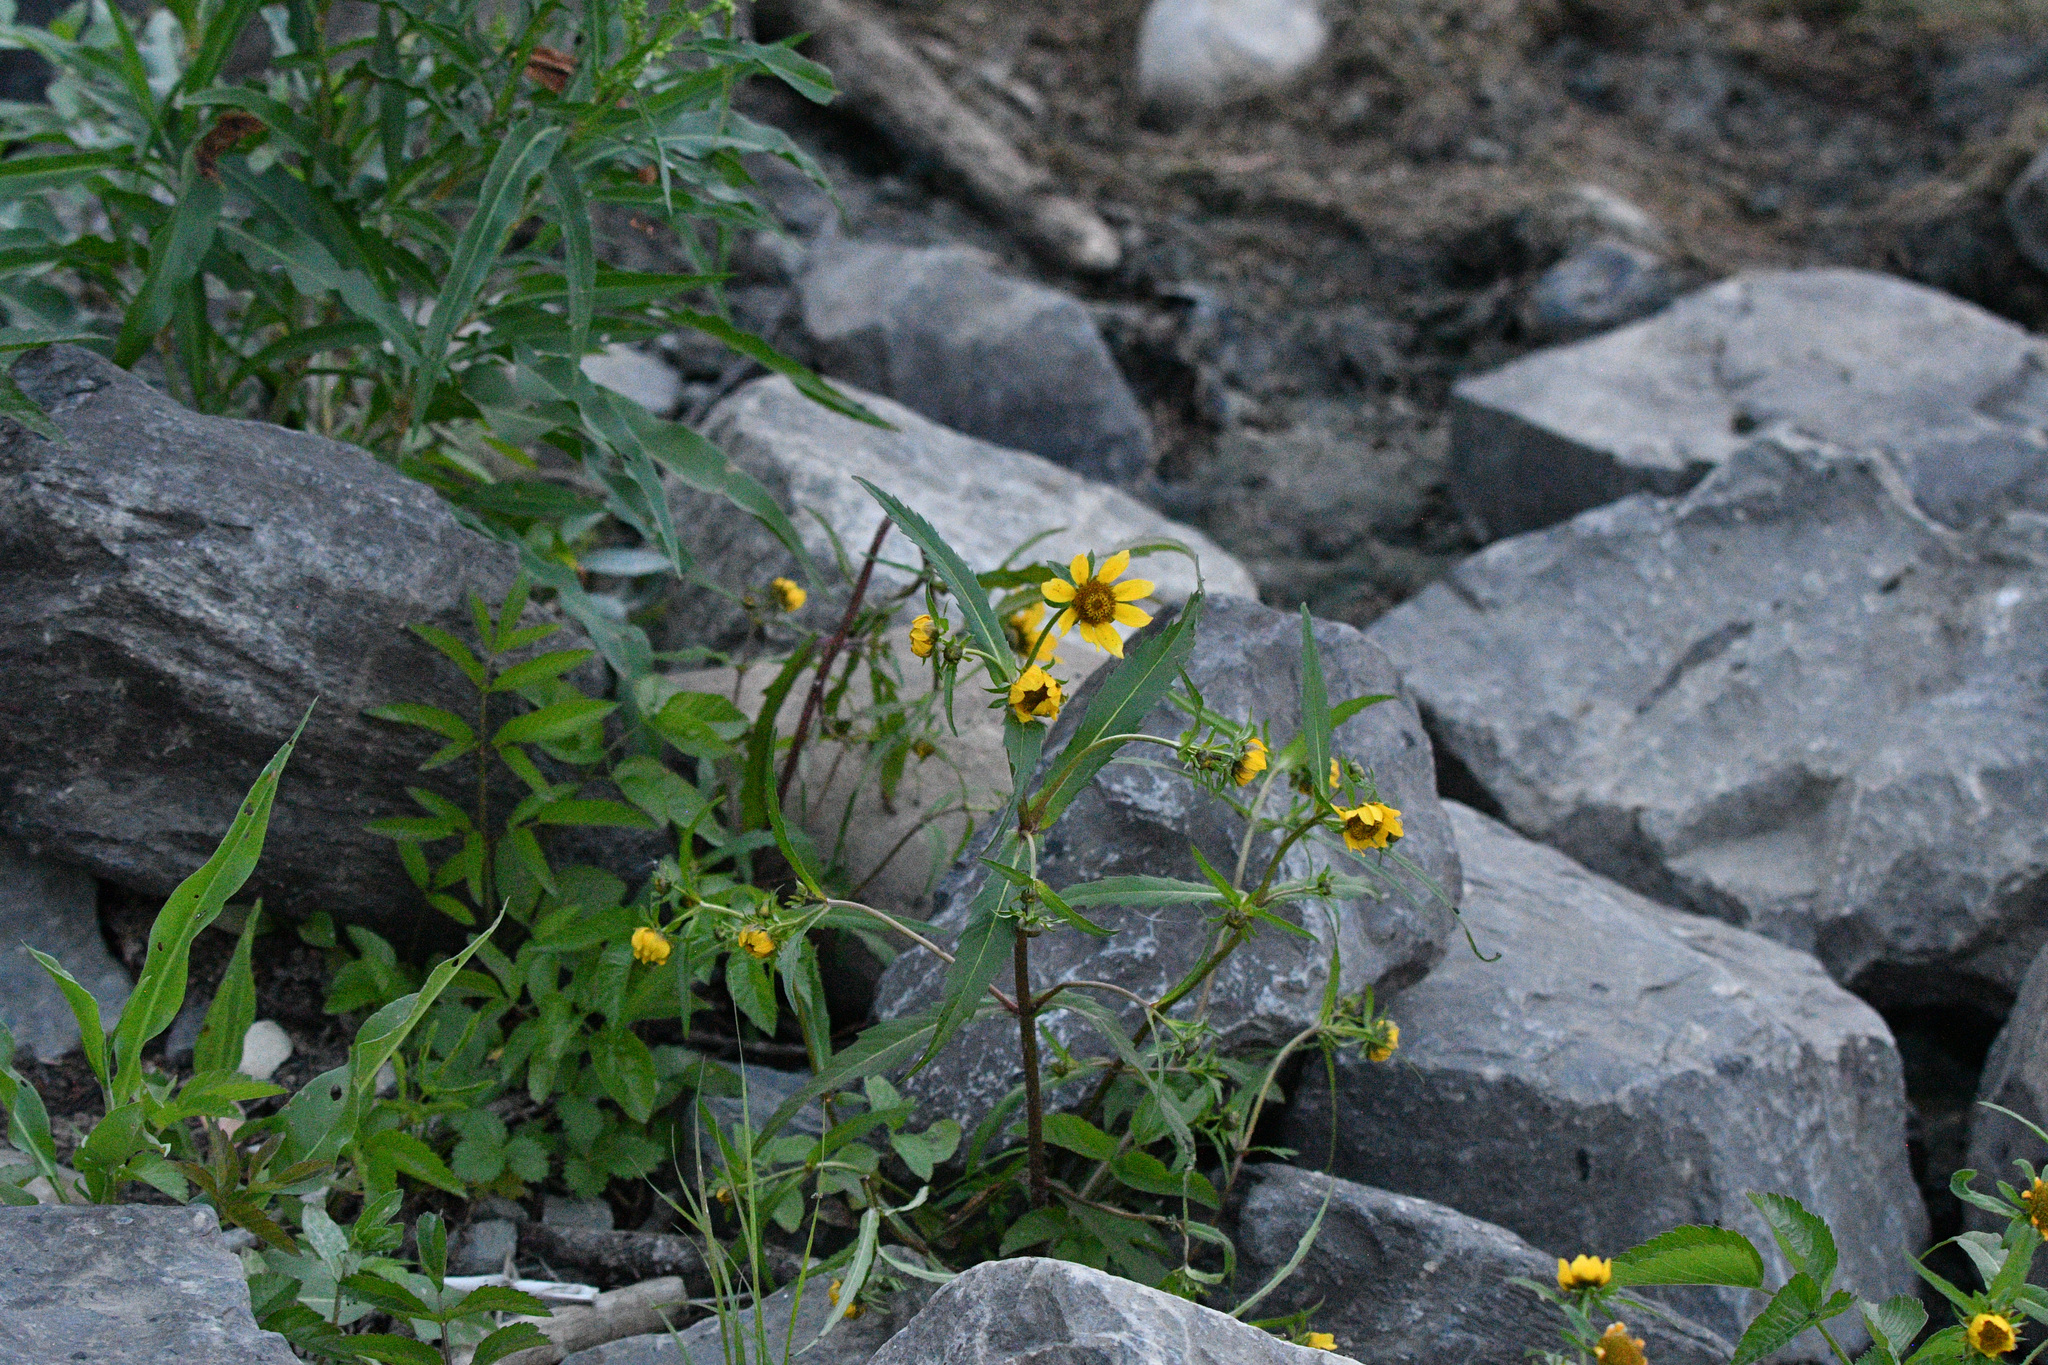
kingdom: Plantae
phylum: Tracheophyta
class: Magnoliopsida
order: Asterales
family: Asteraceae
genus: Bidens
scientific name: Bidens cernua
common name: Nodding bur-marigold
